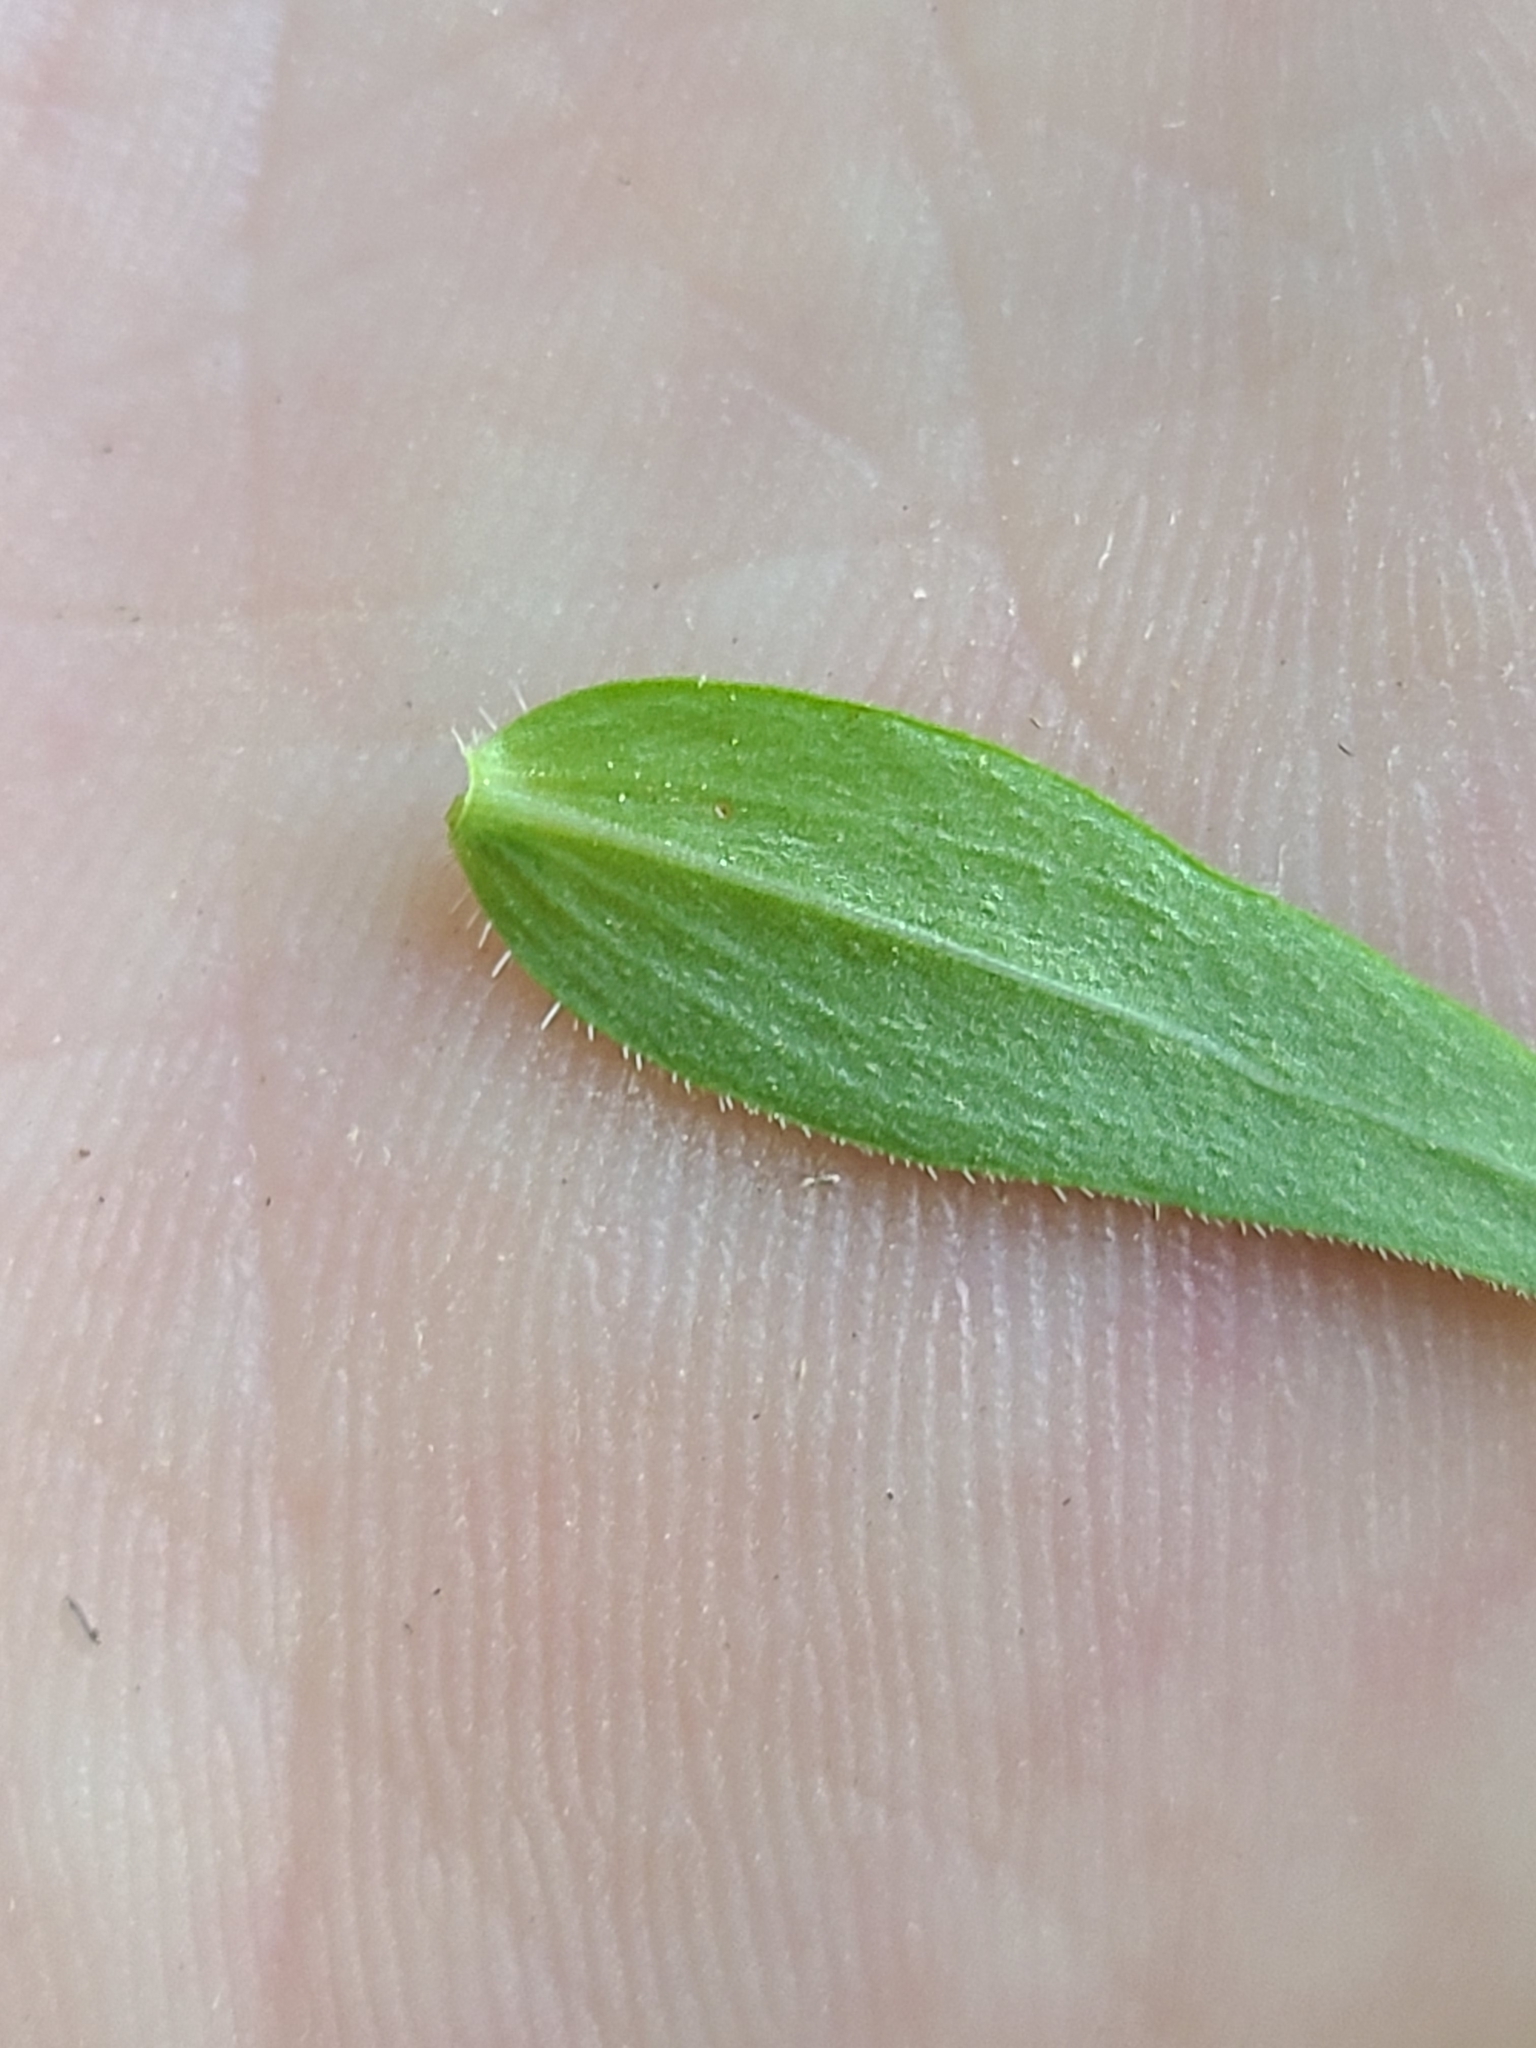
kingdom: Plantae
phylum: Tracheophyta
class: Magnoliopsida
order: Gentianales
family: Rubiaceae
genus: Houstonia
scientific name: Houstonia purpurea
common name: Summer bluet
